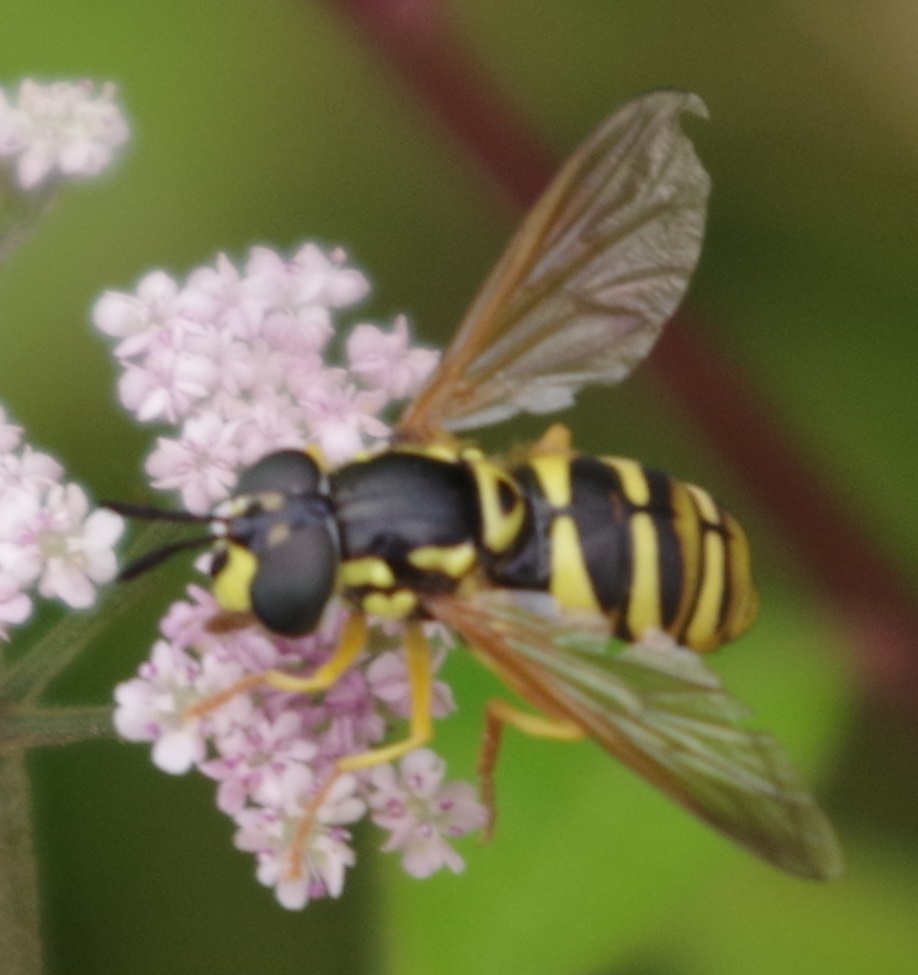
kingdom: Animalia
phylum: Arthropoda
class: Insecta
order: Diptera
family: Syrphidae
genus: Chrysotoxum
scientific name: Chrysotoxum verralli
